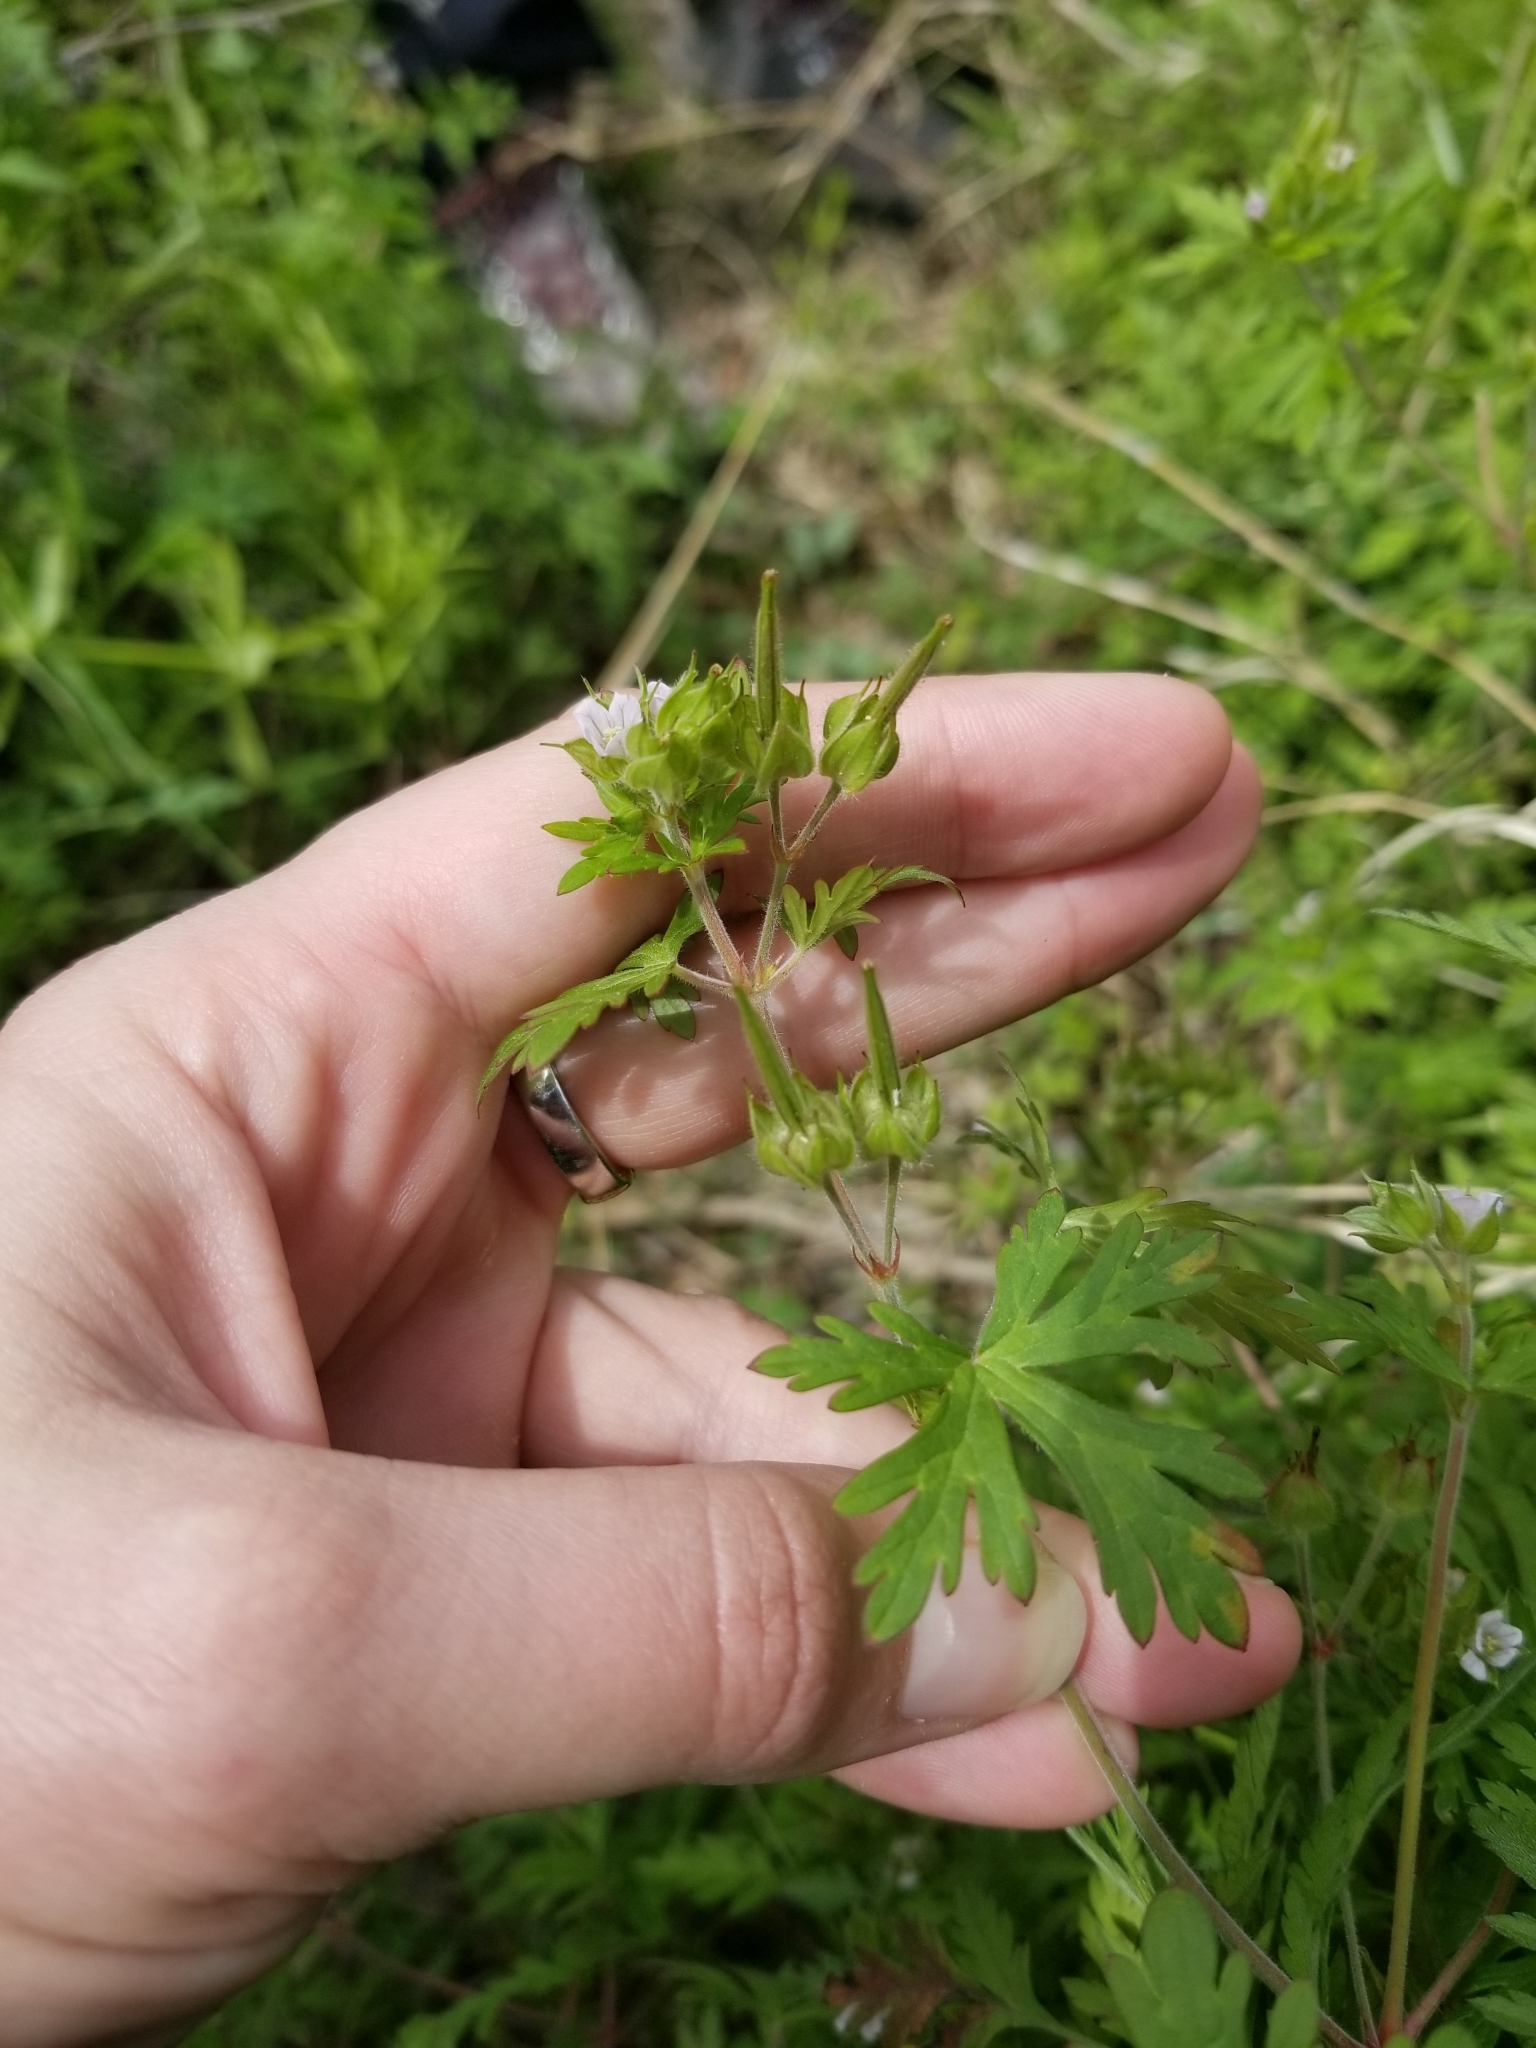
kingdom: Plantae
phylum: Tracheophyta
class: Magnoliopsida
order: Geraniales
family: Geraniaceae
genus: Geranium
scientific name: Geranium carolinianum
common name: Carolina crane's-bill
